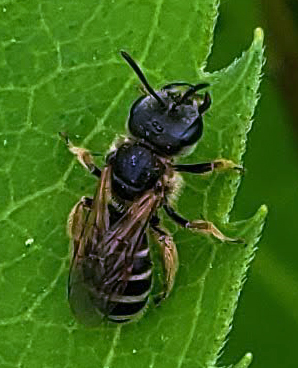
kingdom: Animalia
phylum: Arthropoda
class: Insecta
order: Hymenoptera
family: Halictidae
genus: Halictus
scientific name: Halictus ligatus
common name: Ligated furrow bee
